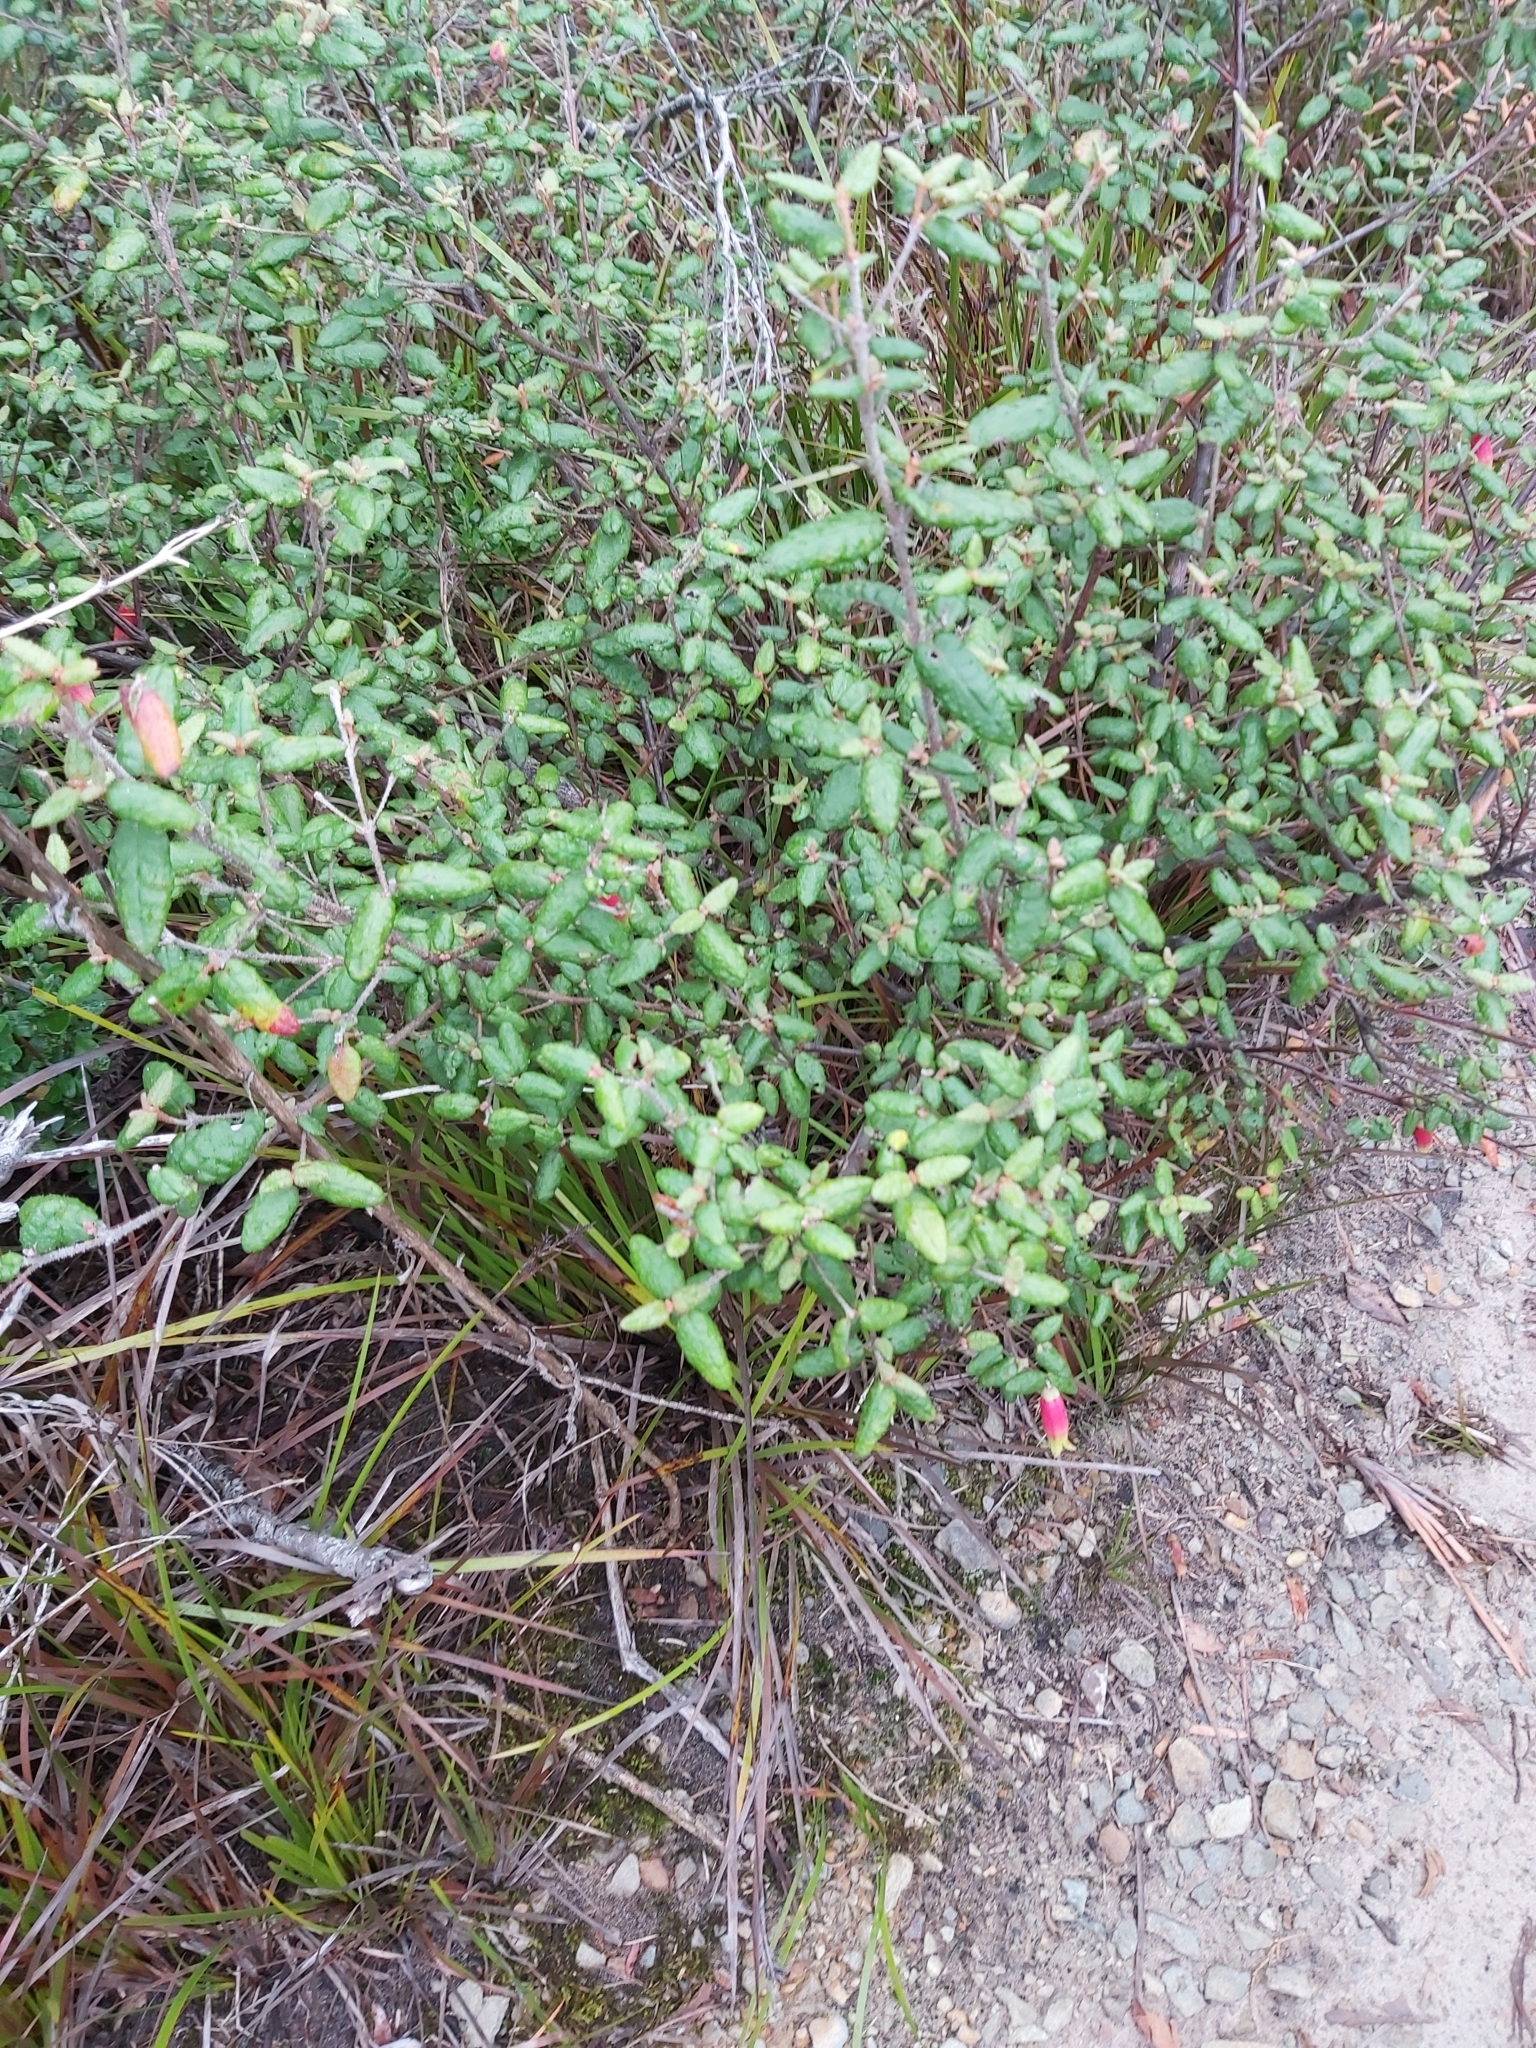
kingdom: Plantae
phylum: Tracheophyta
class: Magnoliopsida
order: Sapindales
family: Rutaceae
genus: Correa
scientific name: Correa reflexa
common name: Common correa
